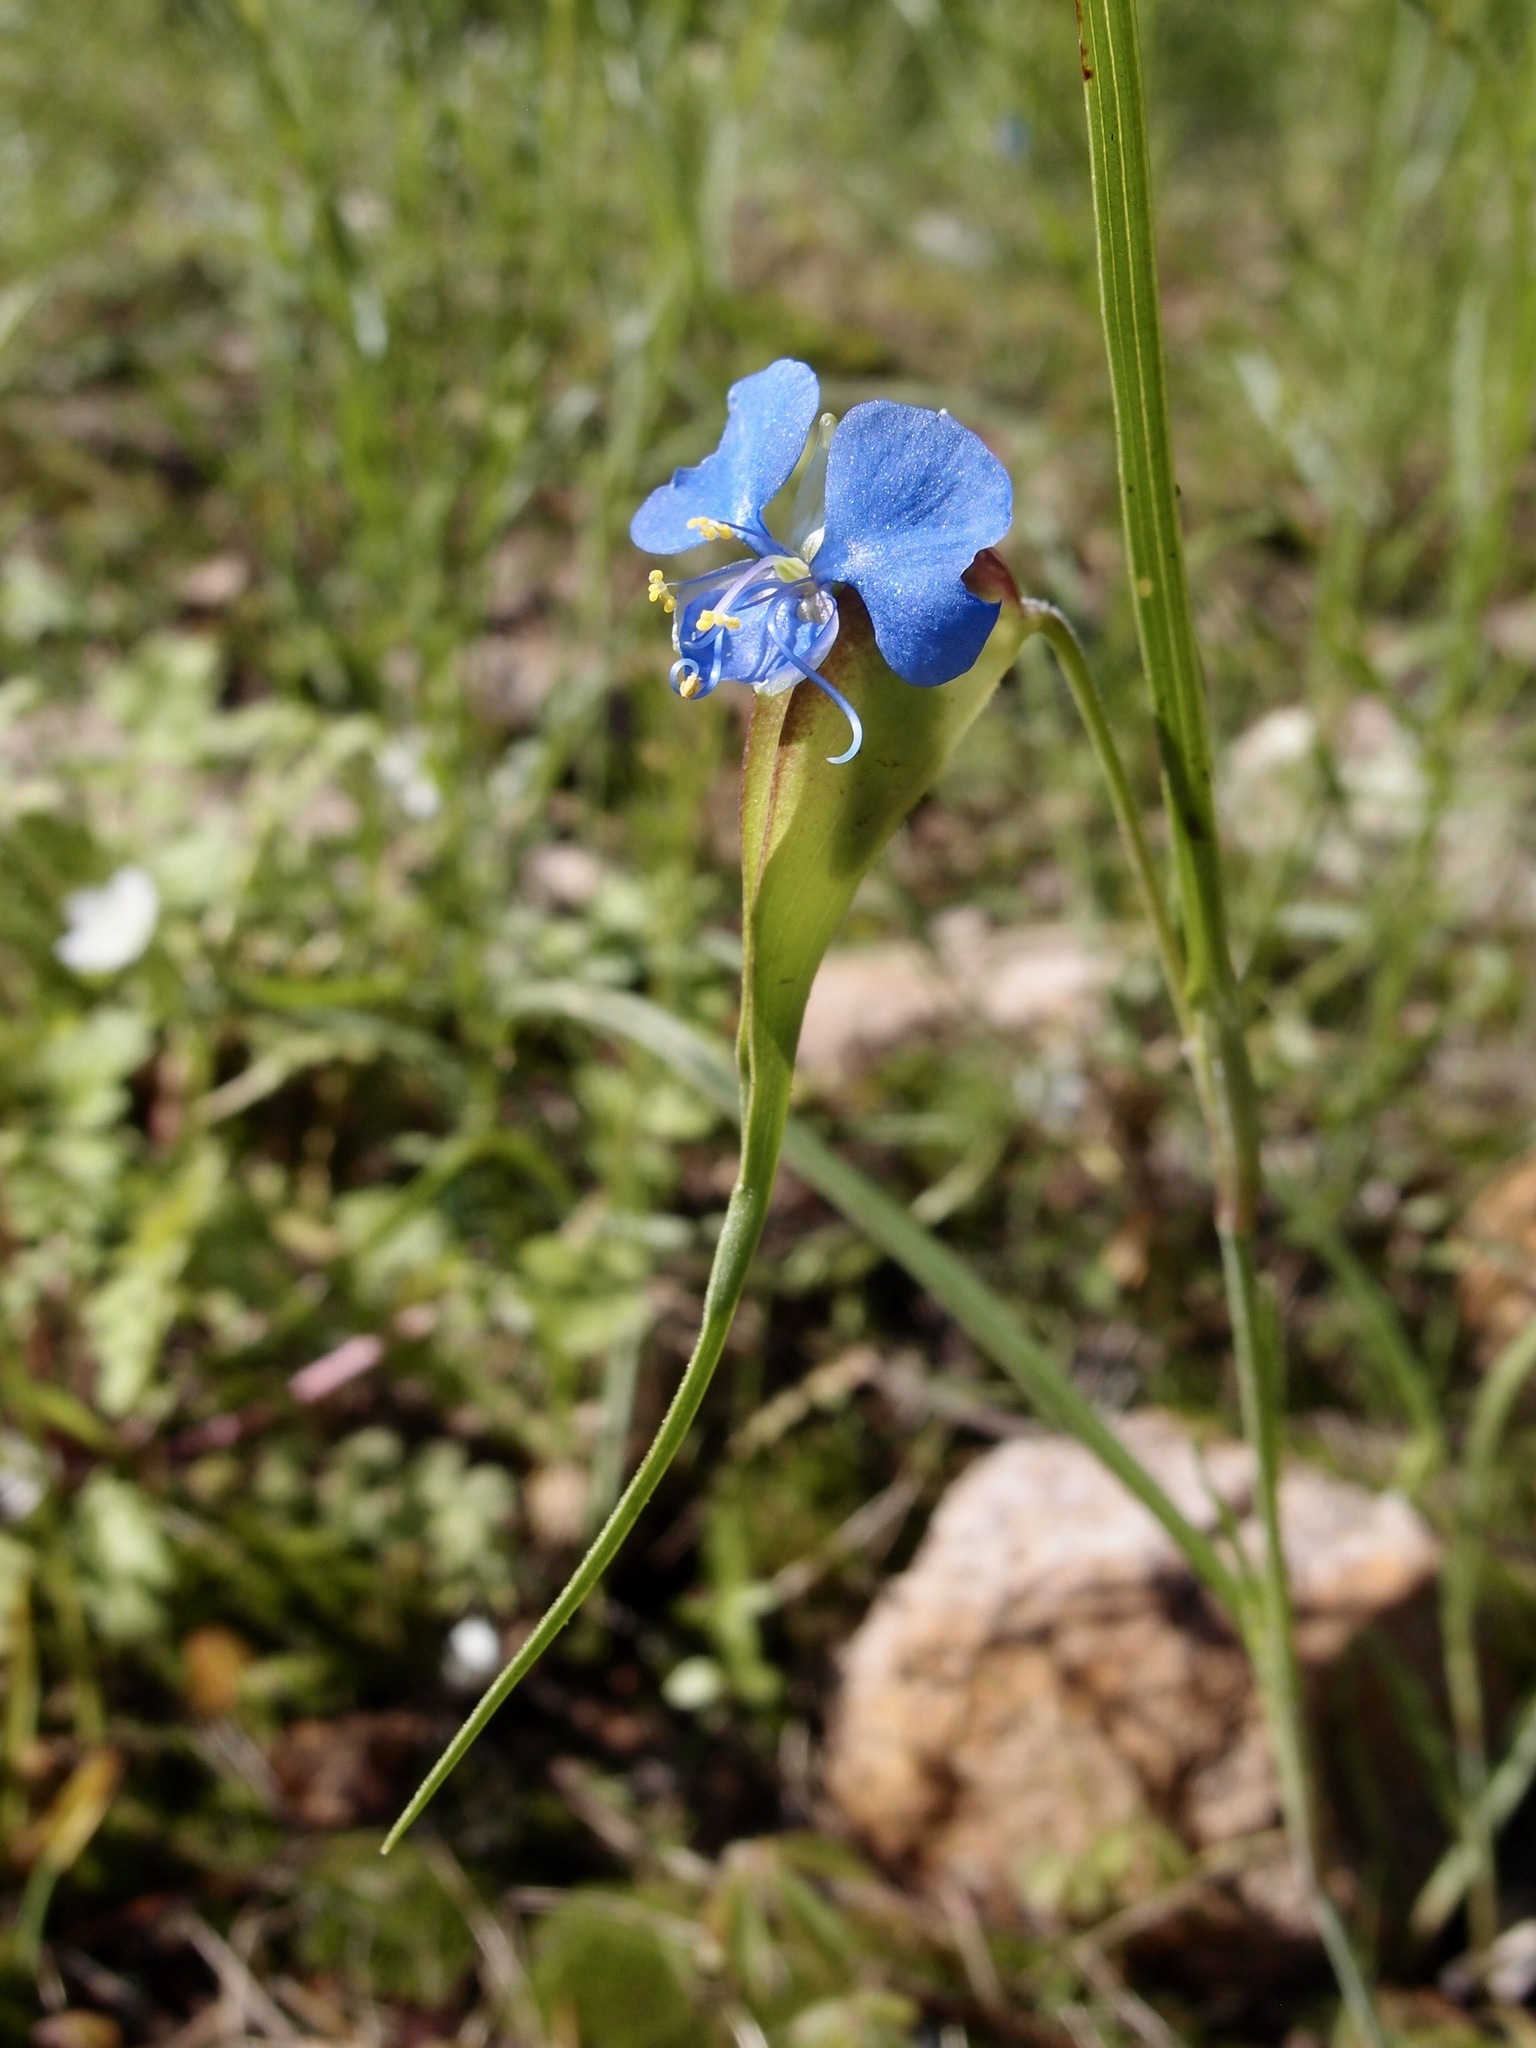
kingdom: Plantae
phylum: Tracheophyta
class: Liliopsida
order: Commelinales
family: Commelinaceae
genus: Commelina
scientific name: Commelina dianthifolia
